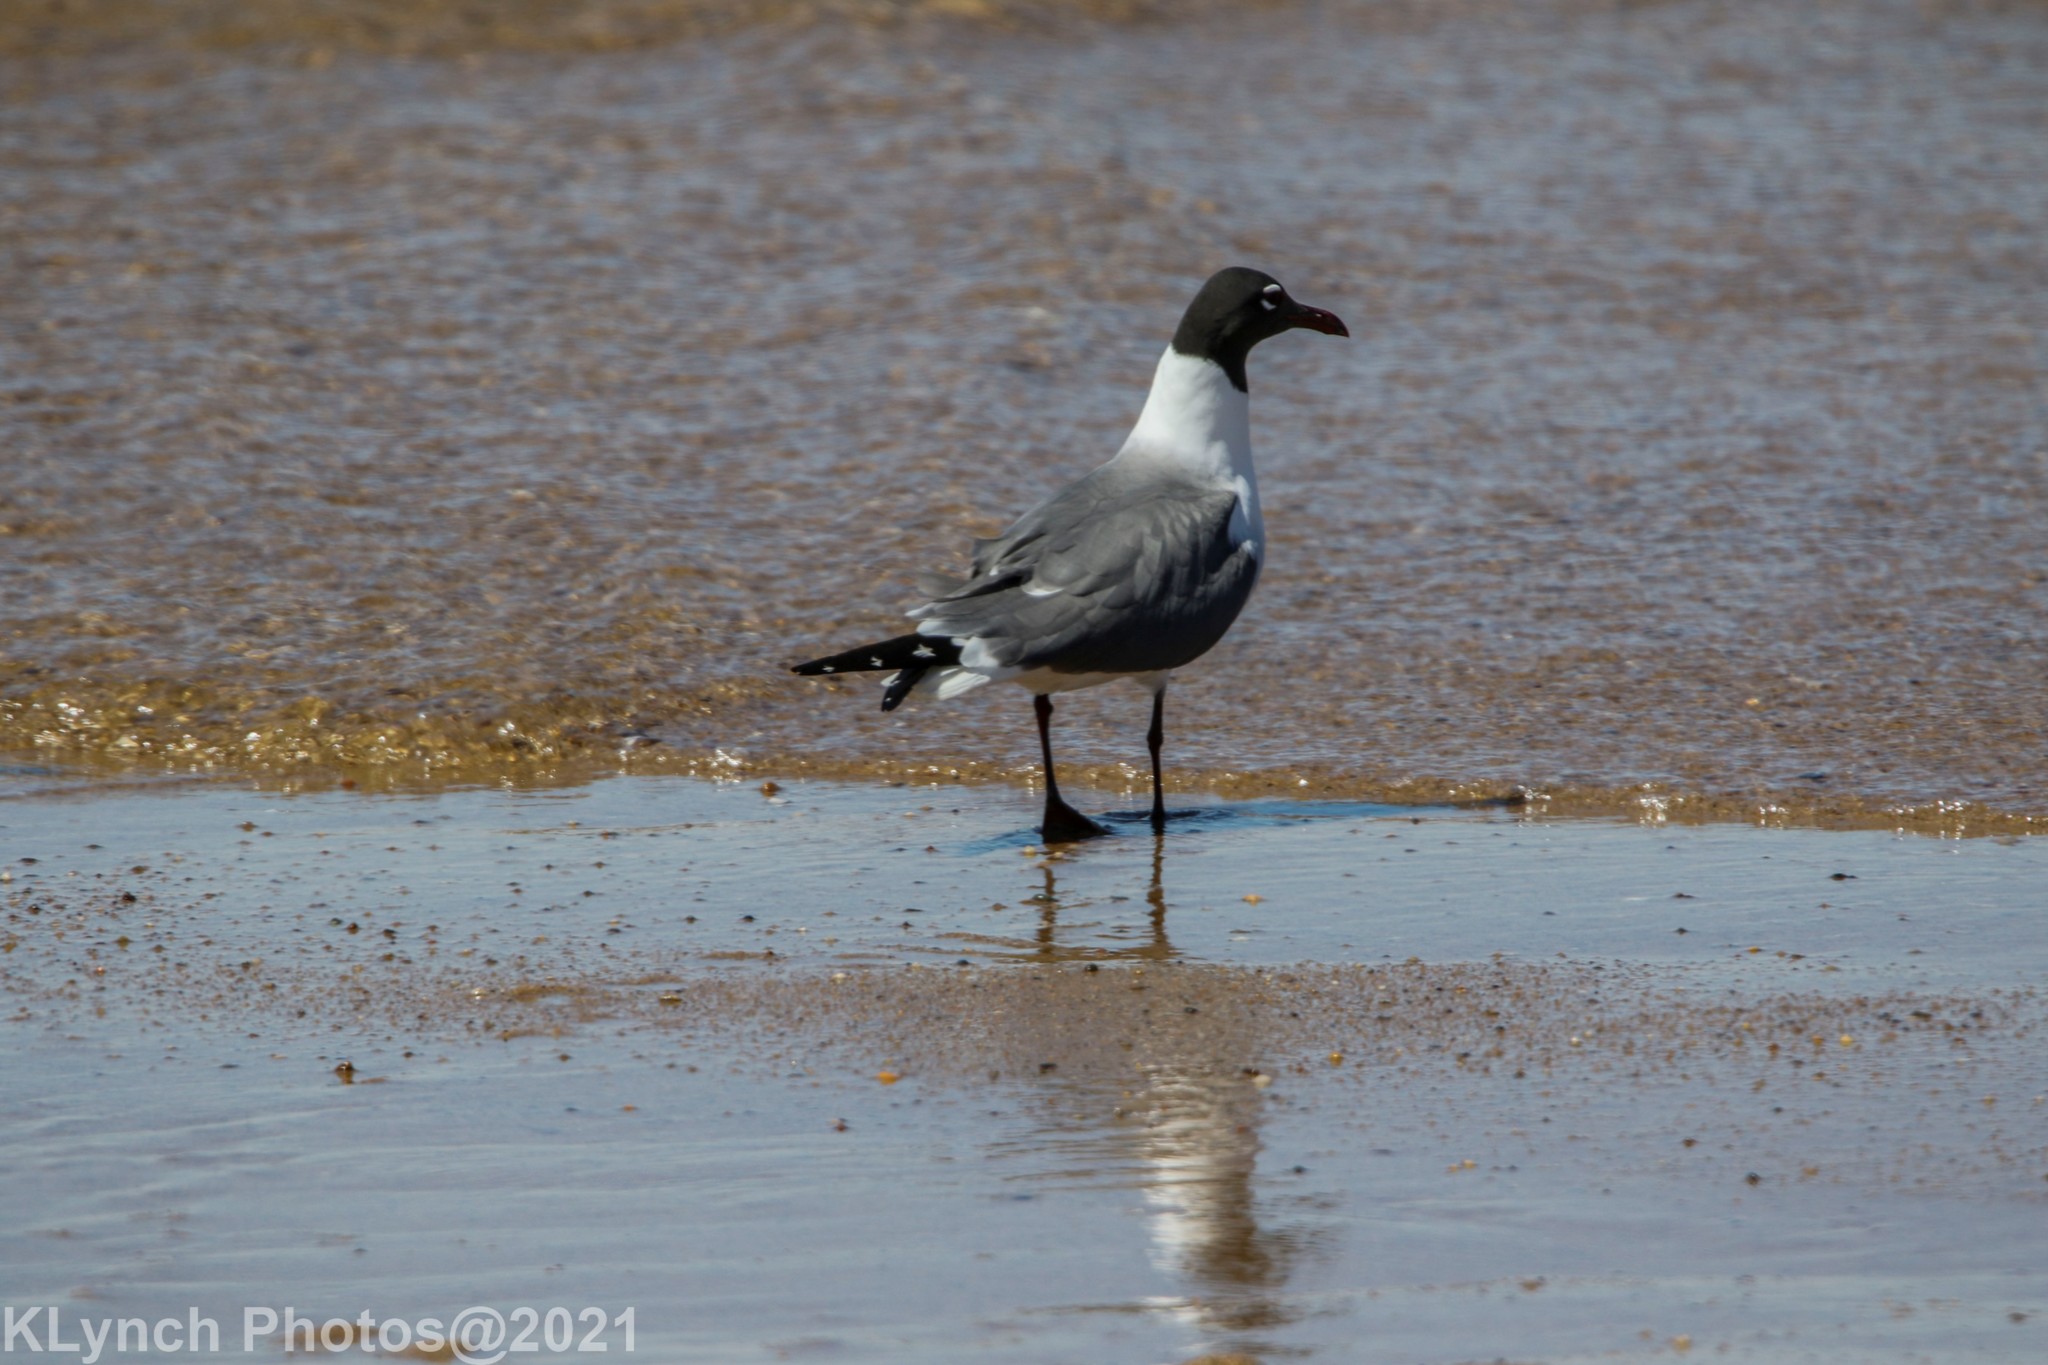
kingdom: Animalia
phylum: Chordata
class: Aves
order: Charadriiformes
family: Laridae
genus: Leucophaeus
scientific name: Leucophaeus atricilla
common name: Laughing gull
